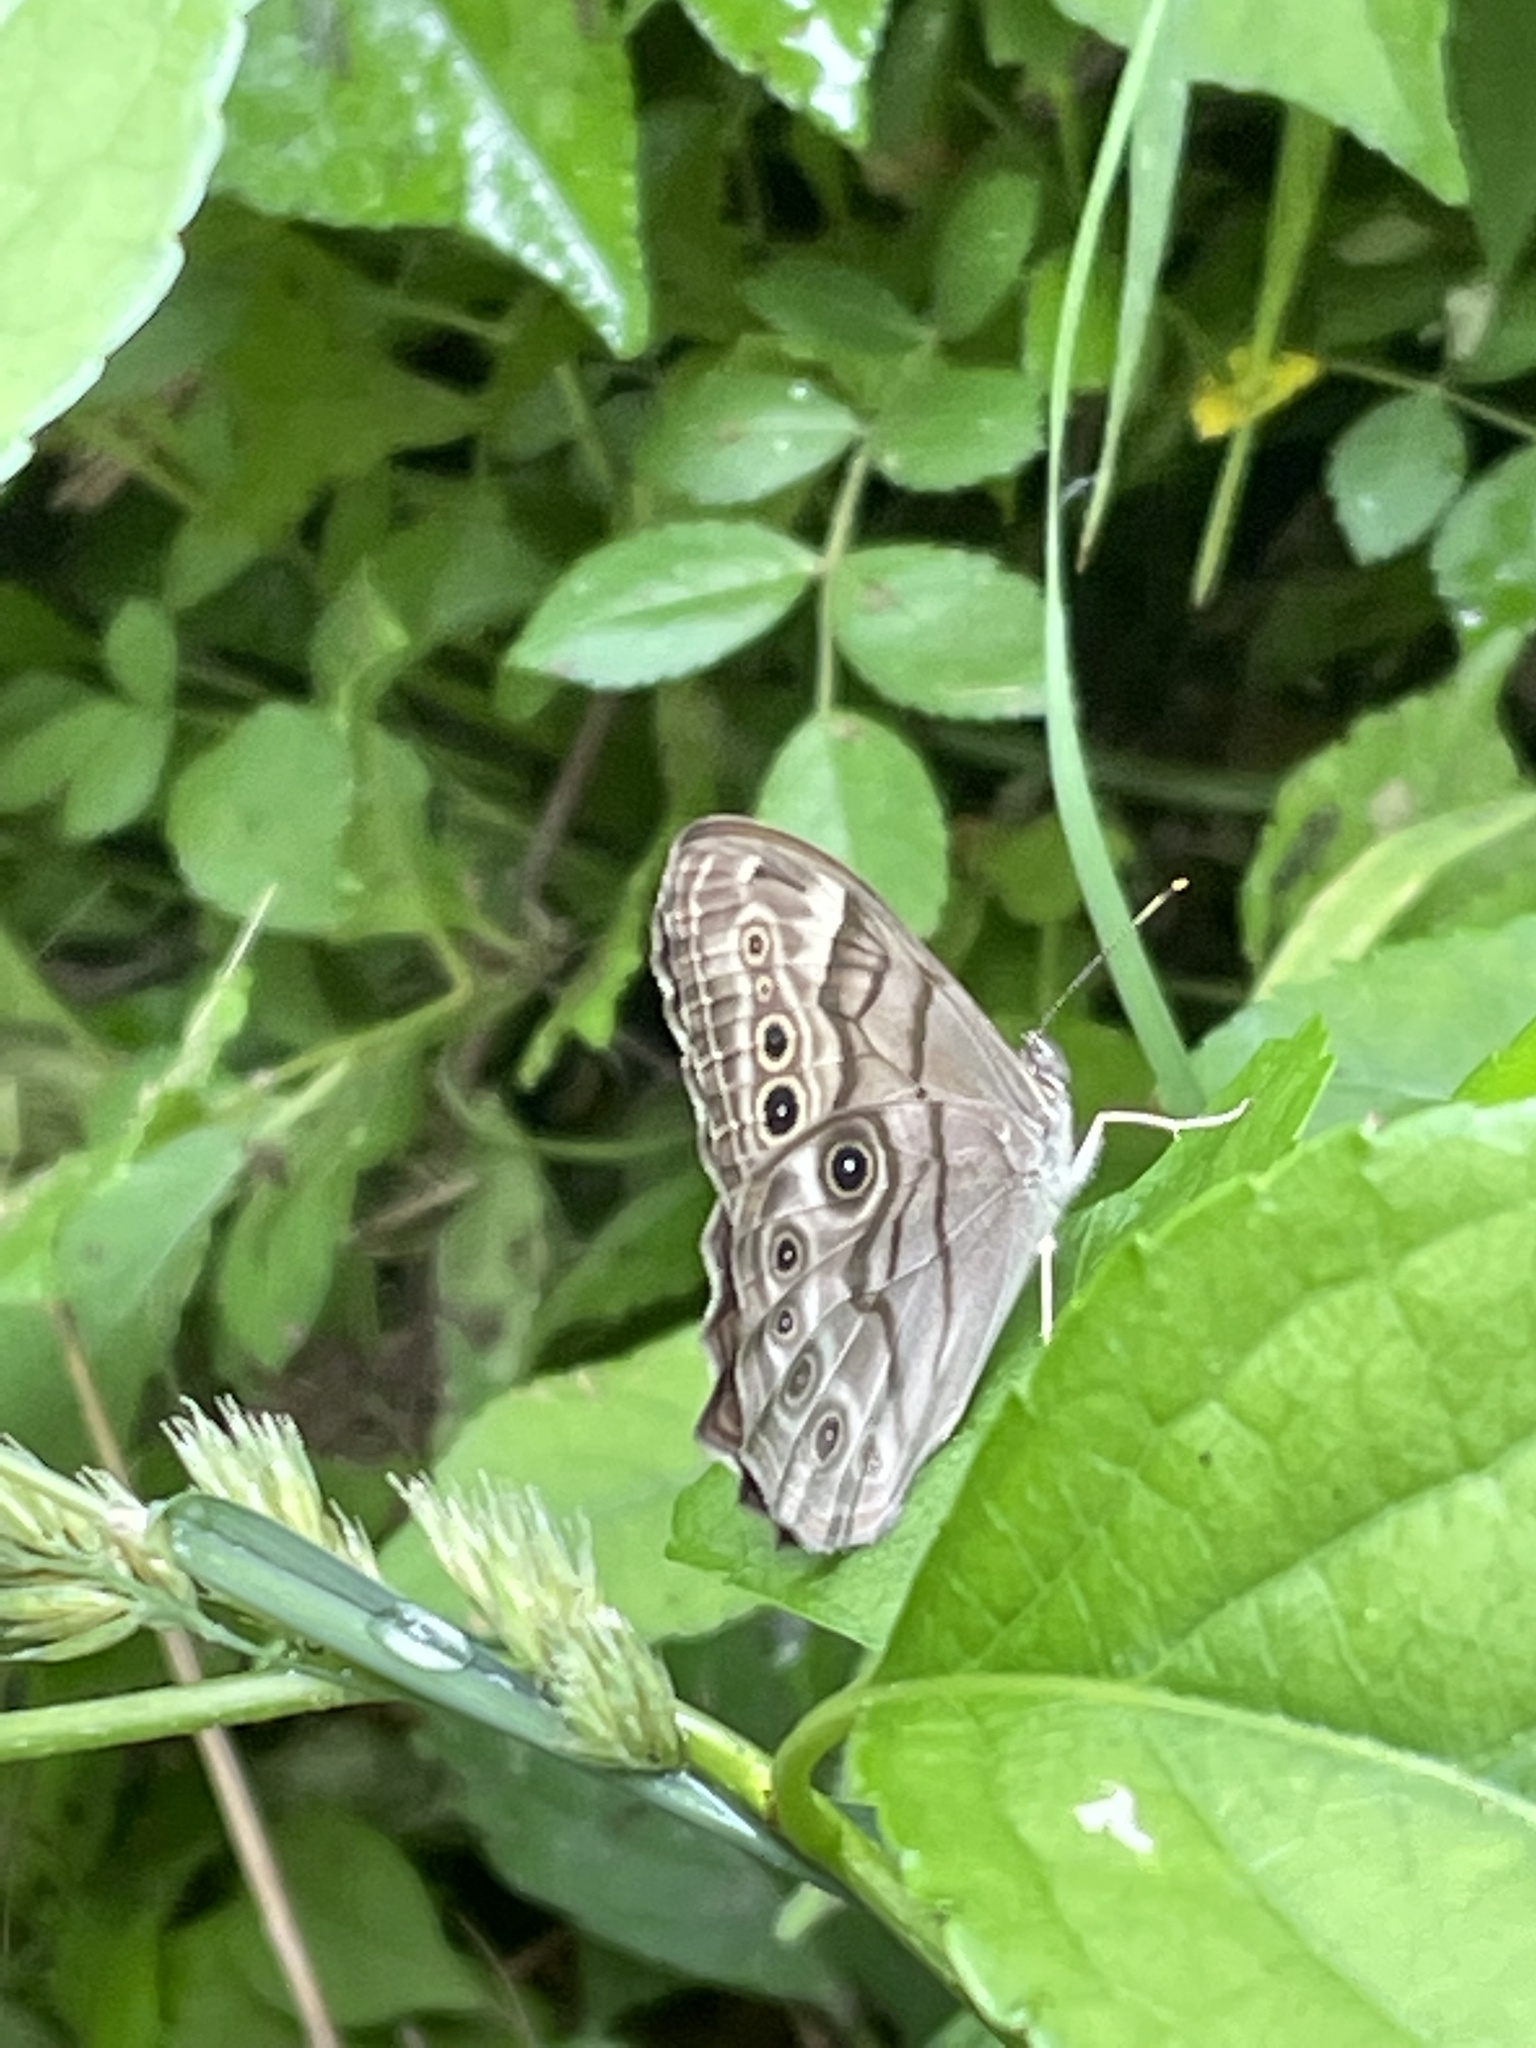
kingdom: Animalia
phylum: Arthropoda
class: Insecta
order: Lepidoptera
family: Nymphalidae
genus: Lethe
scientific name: Lethe anthedon
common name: Northern pearly-eye
